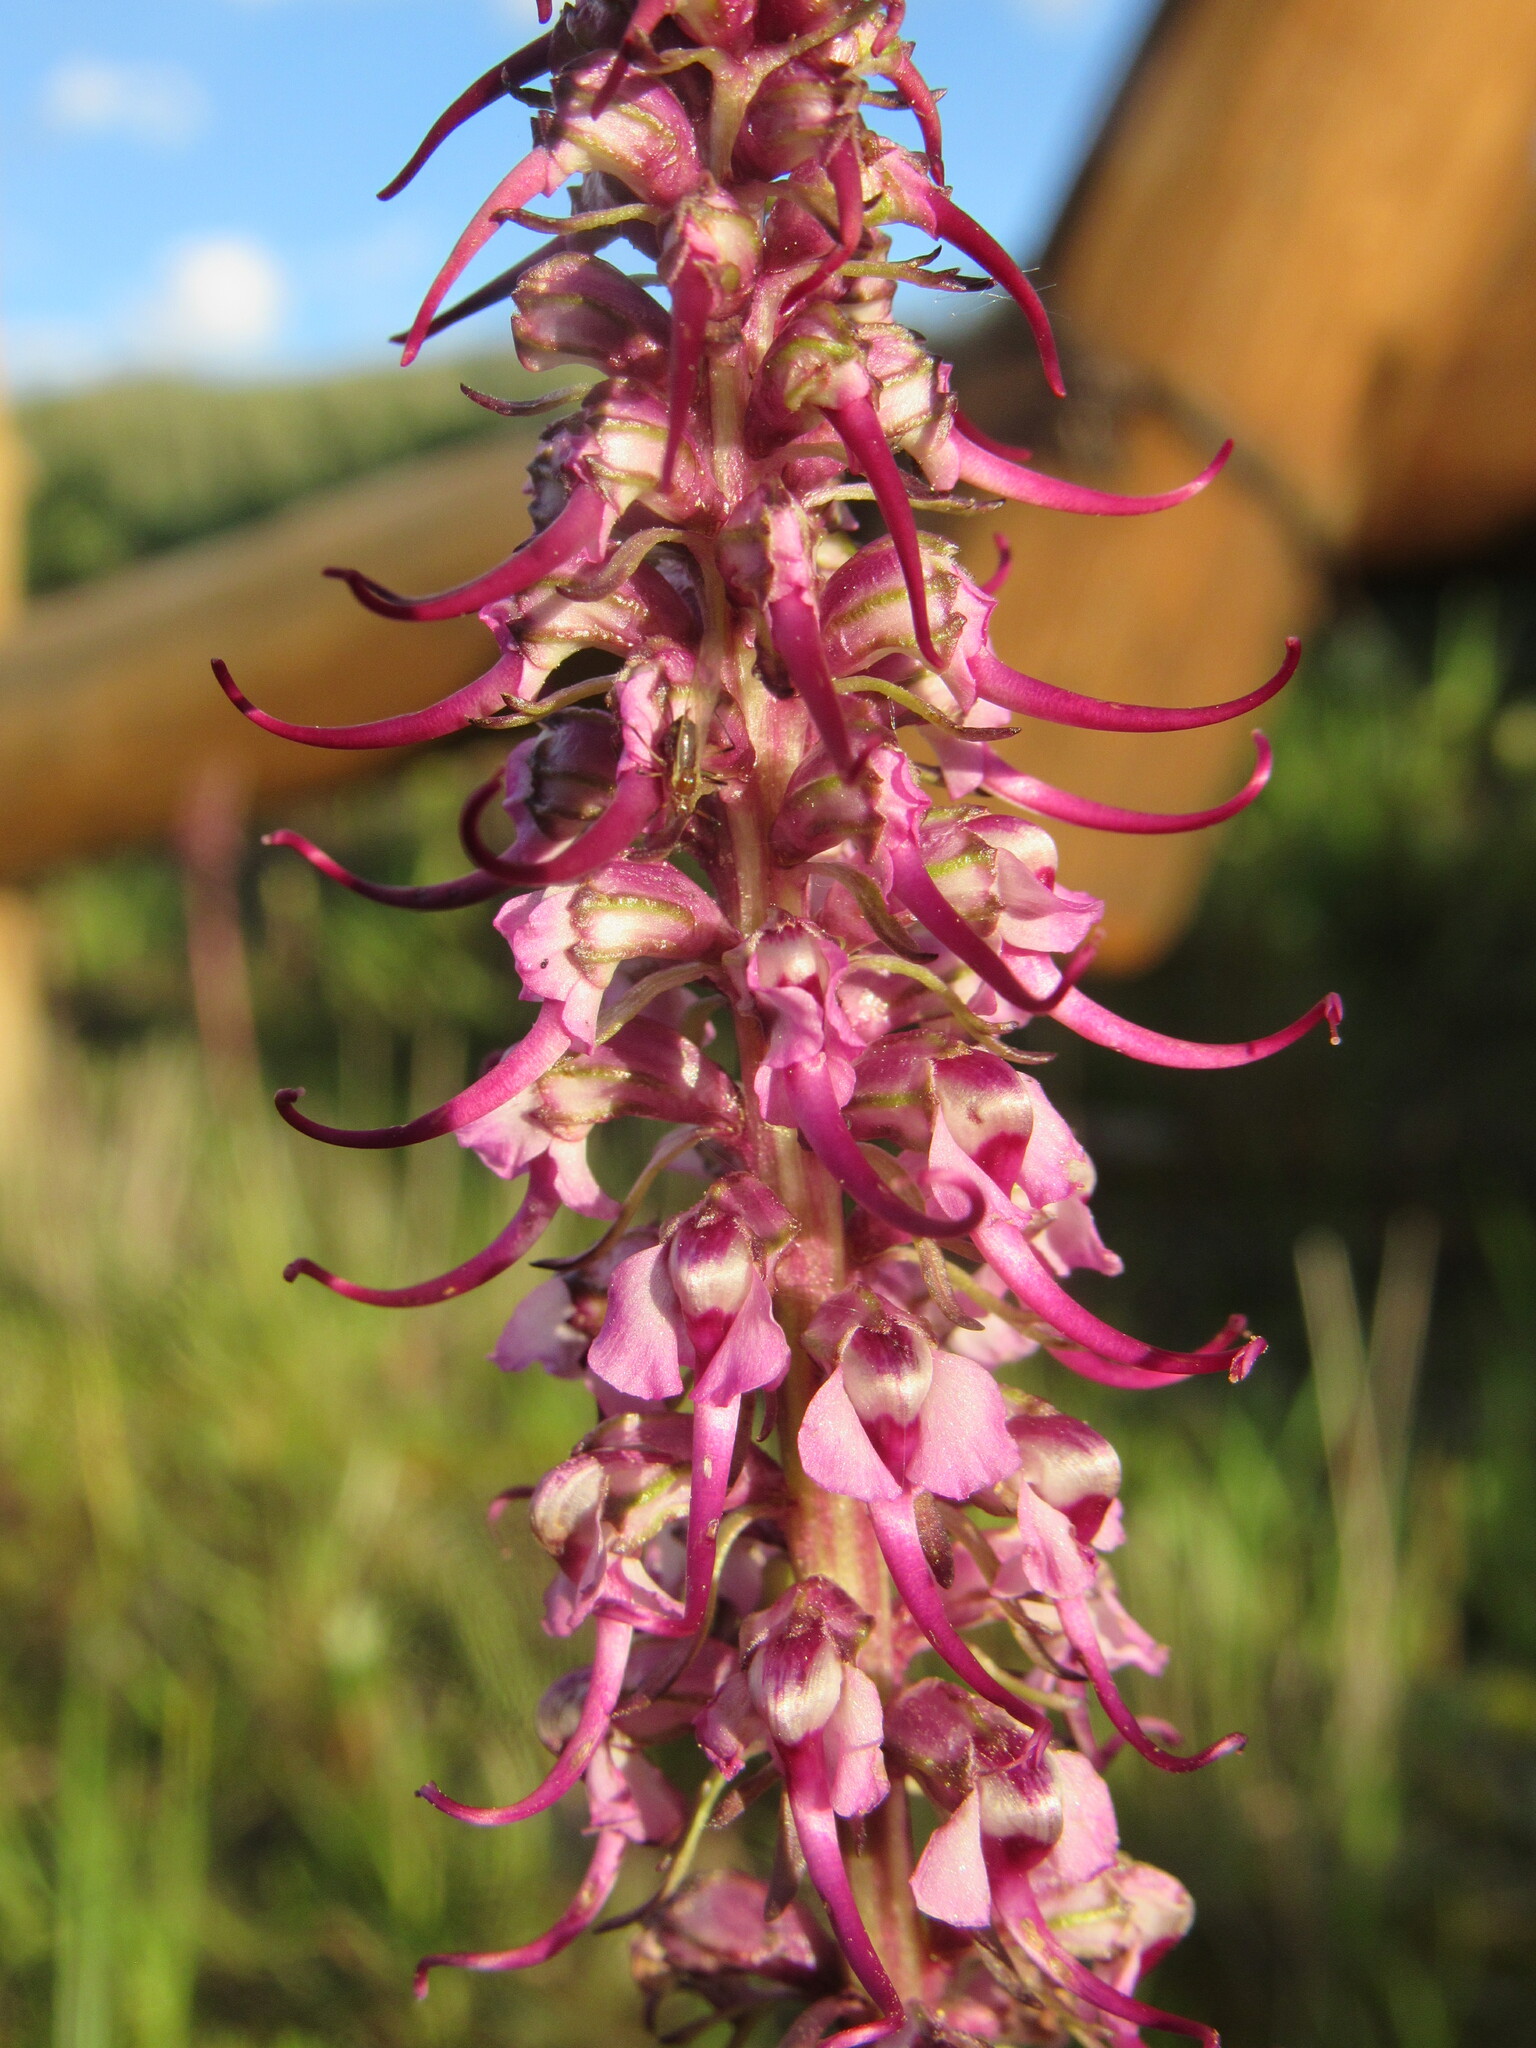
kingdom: Plantae
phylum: Tracheophyta
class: Magnoliopsida
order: Lamiales
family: Orobanchaceae
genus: Pedicularis
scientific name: Pedicularis groenlandica
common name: Elephant's-head
